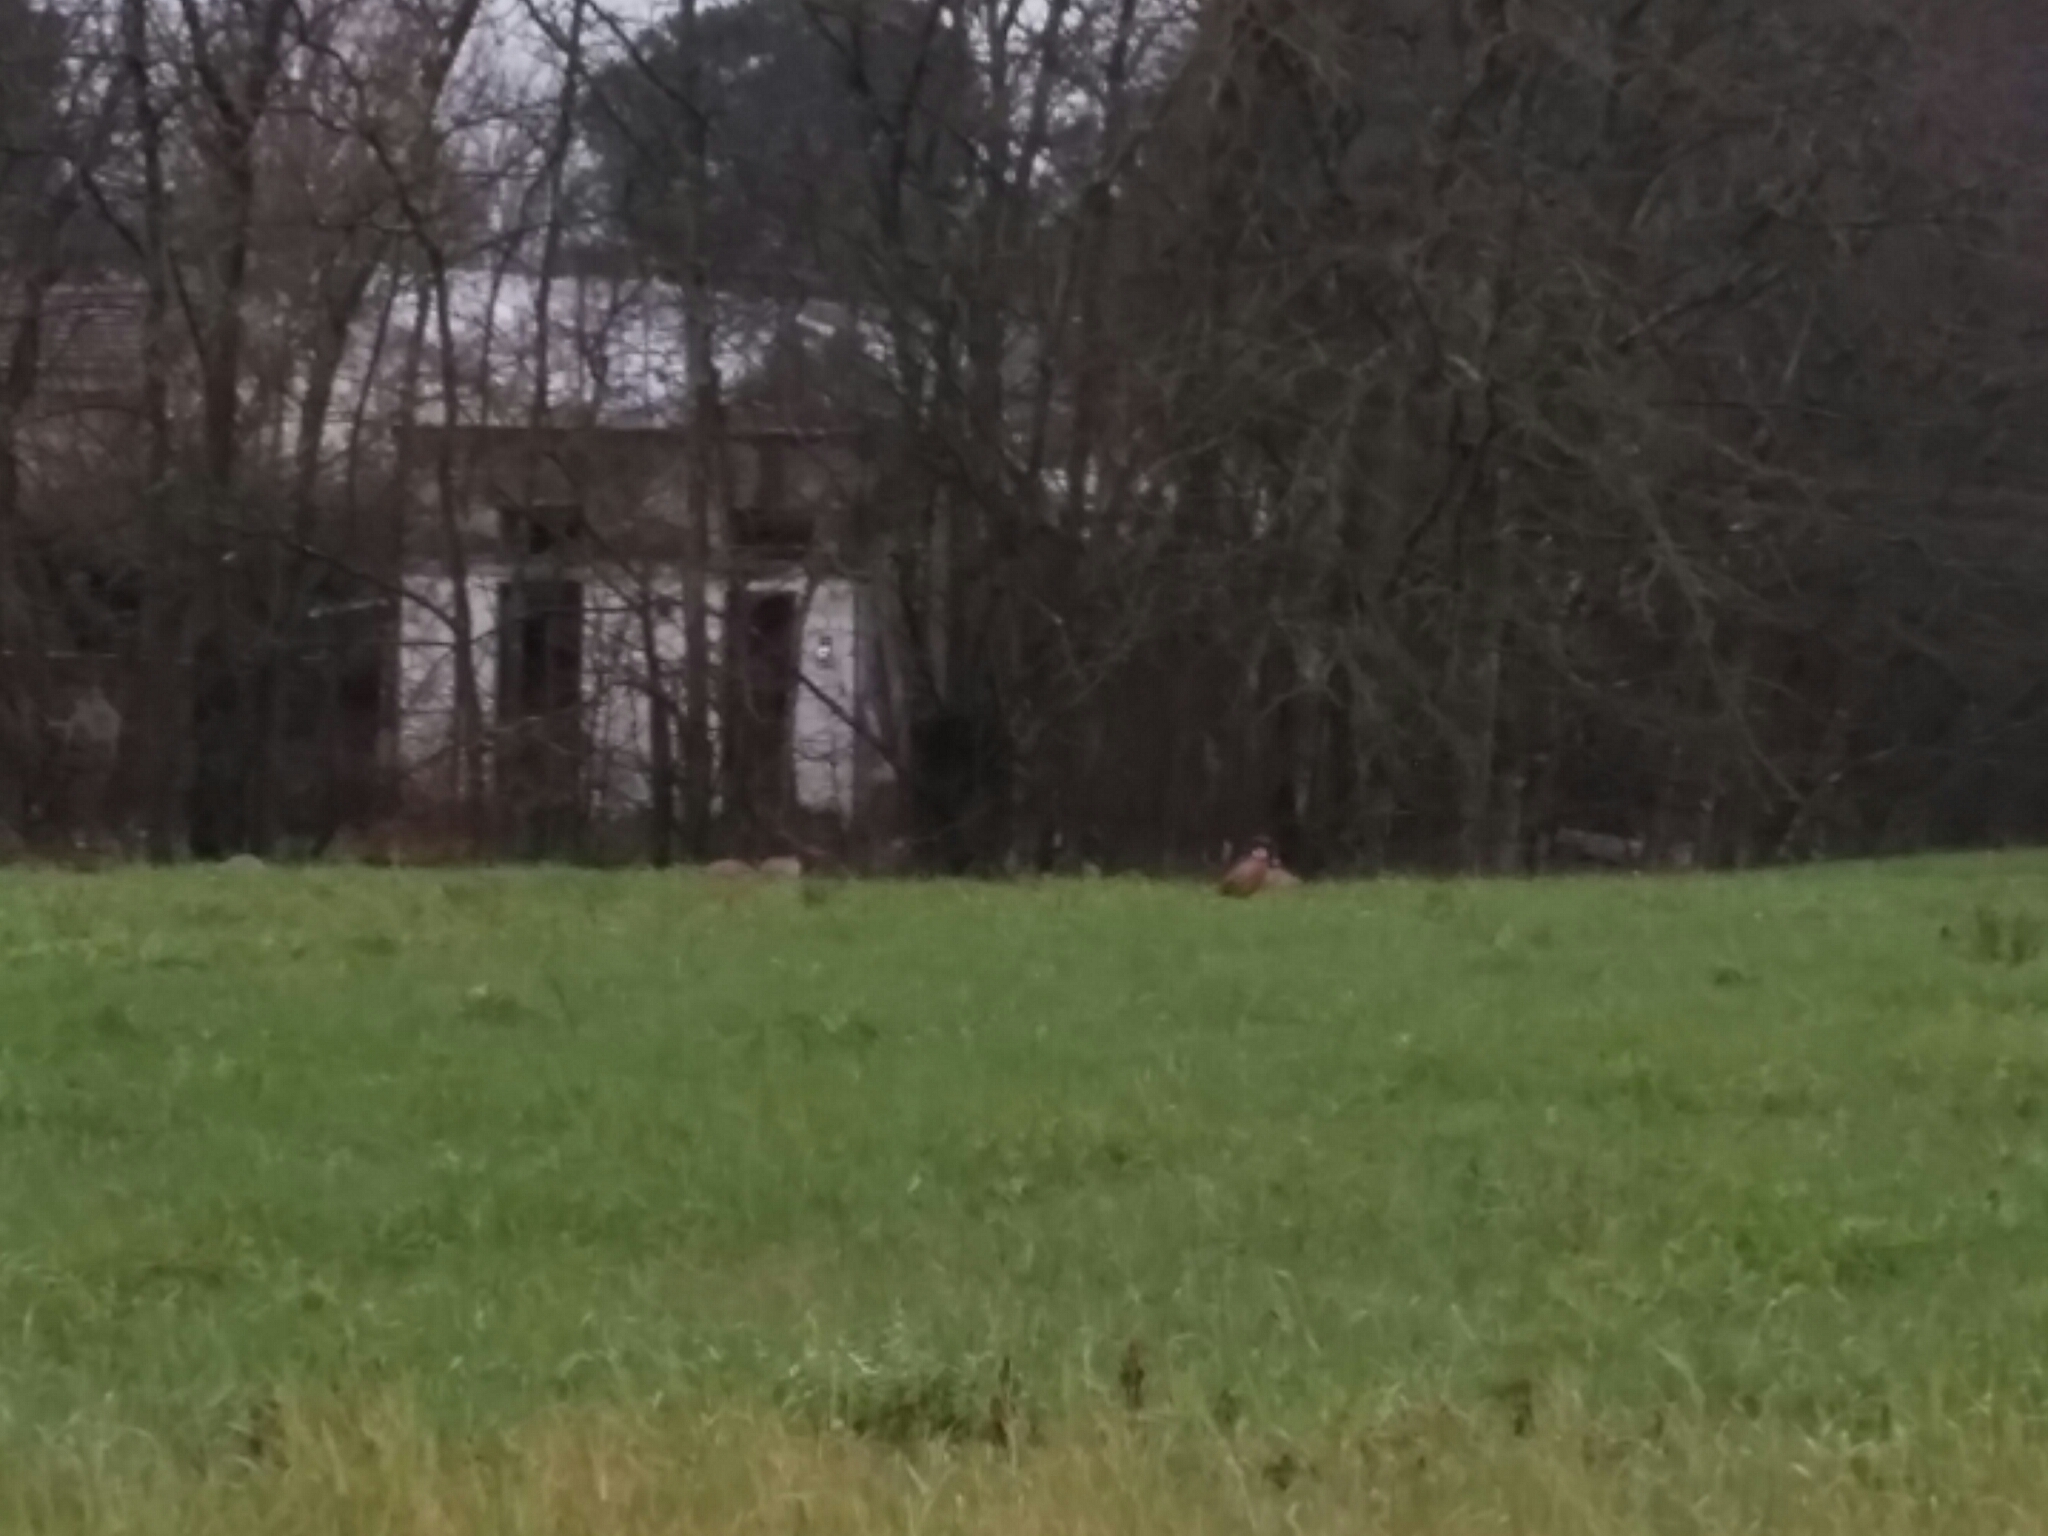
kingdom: Animalia
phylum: Chordata
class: Aves
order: Galliformes
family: Phasianidae
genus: Phasianus
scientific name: Phasianus colchicus
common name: Common pheasant
